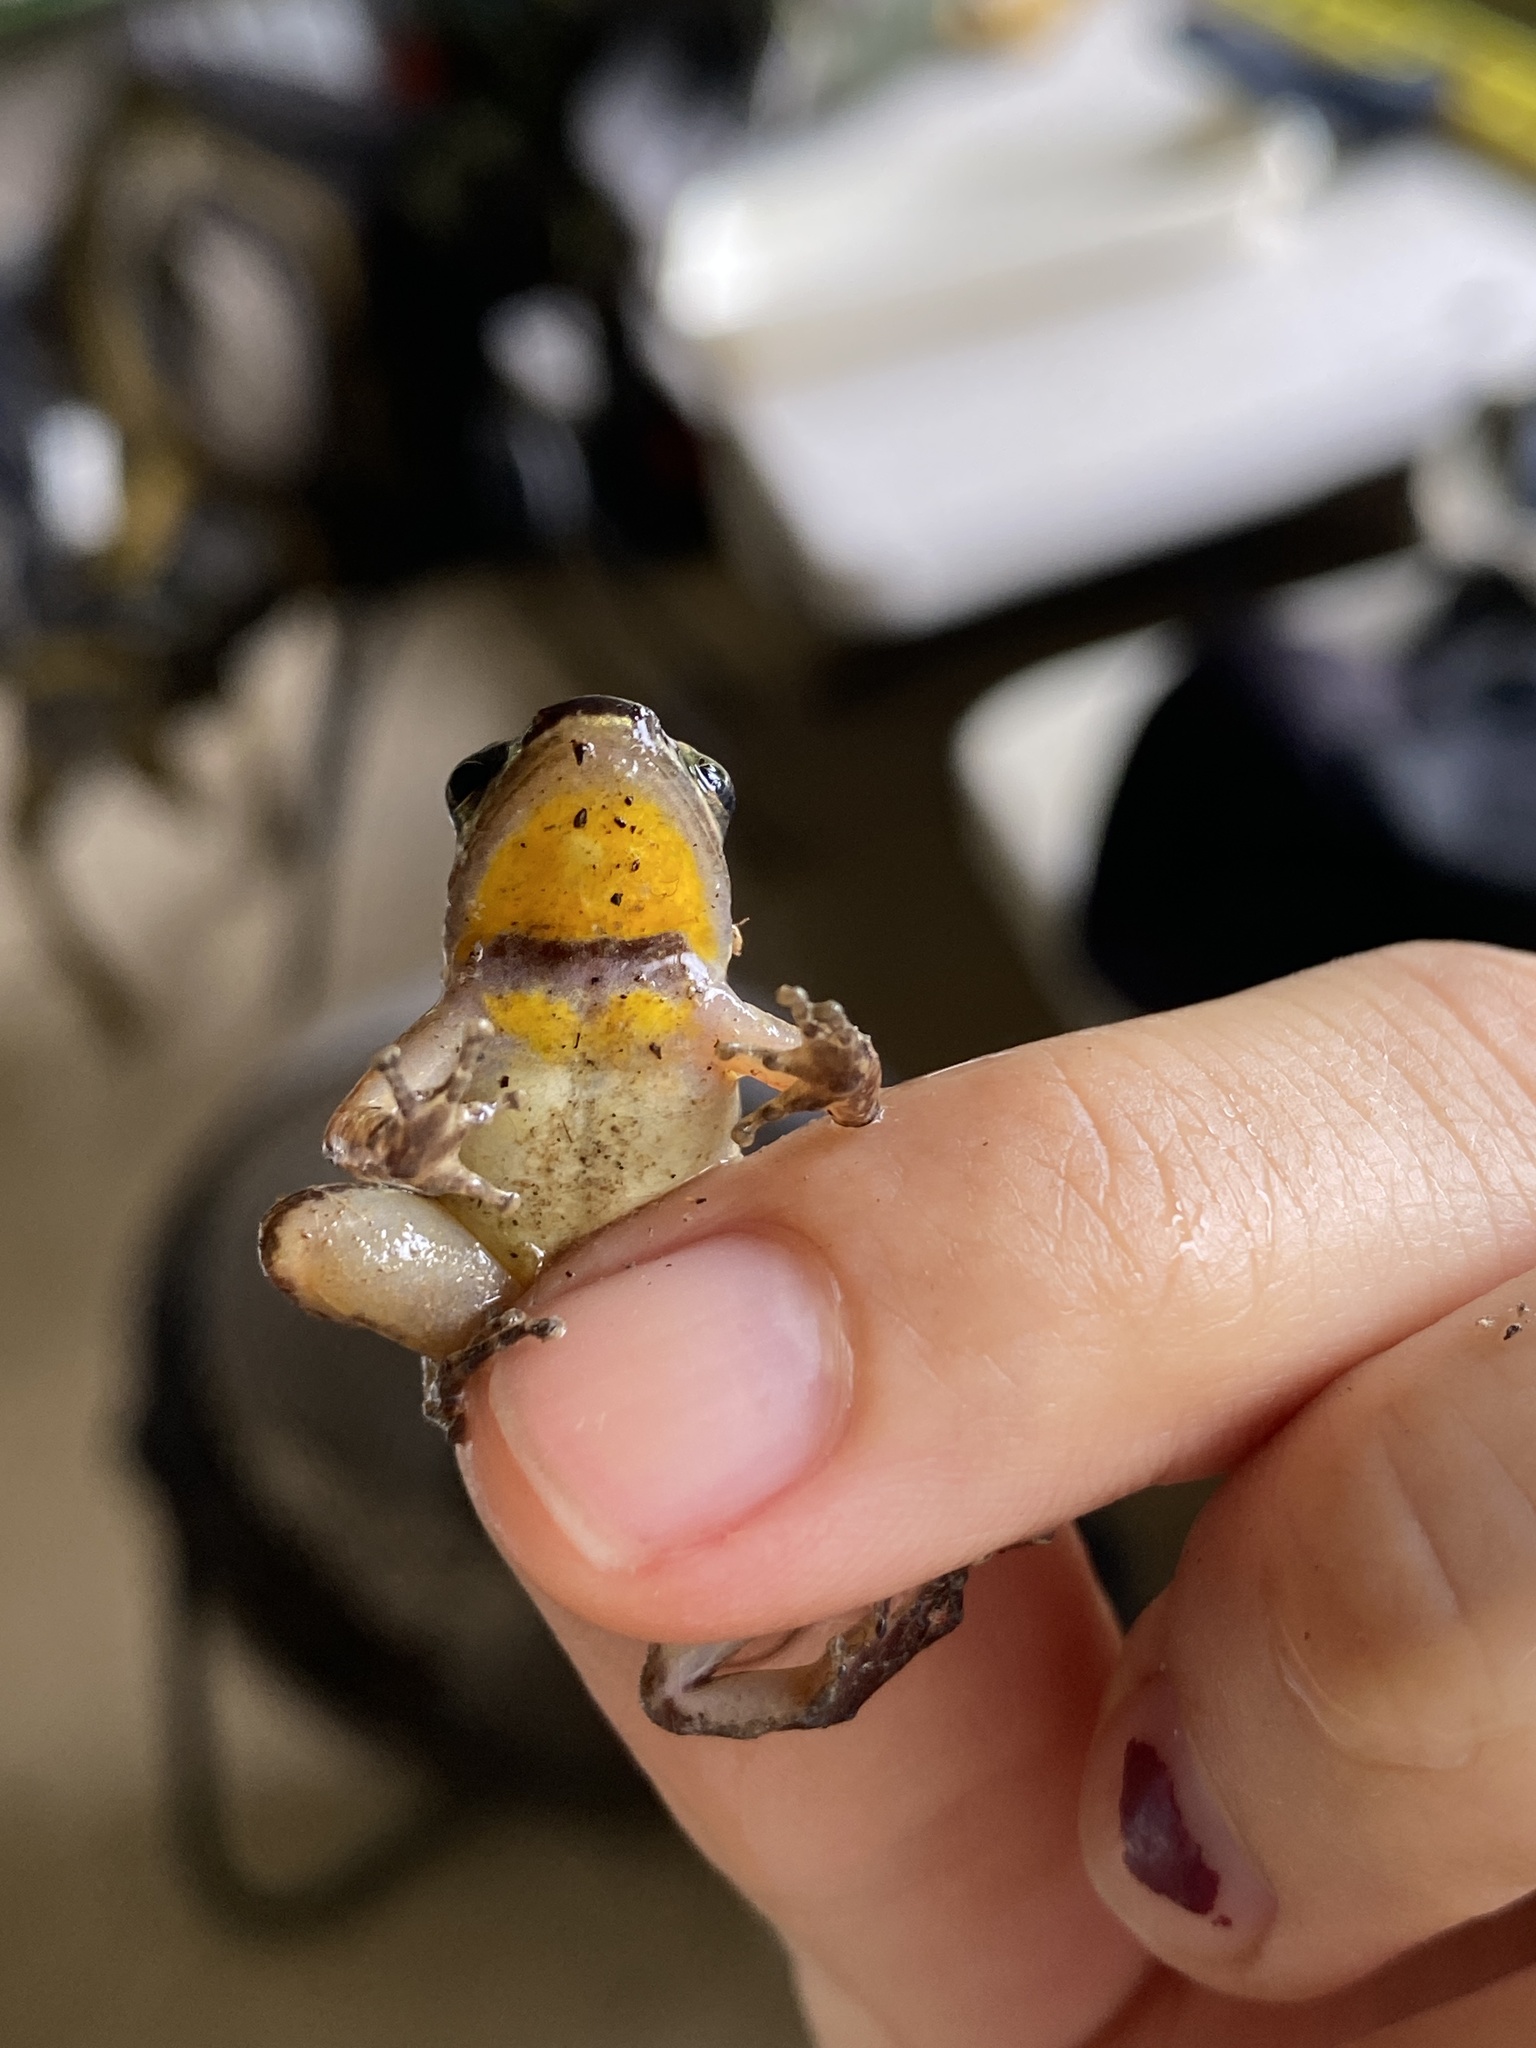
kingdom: Animalia
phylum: Chordata
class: Amphibia
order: Anura
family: Aromobatidae
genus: Mannophryne
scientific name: Mannophryne trinitatis
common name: Trinidad poison frog
